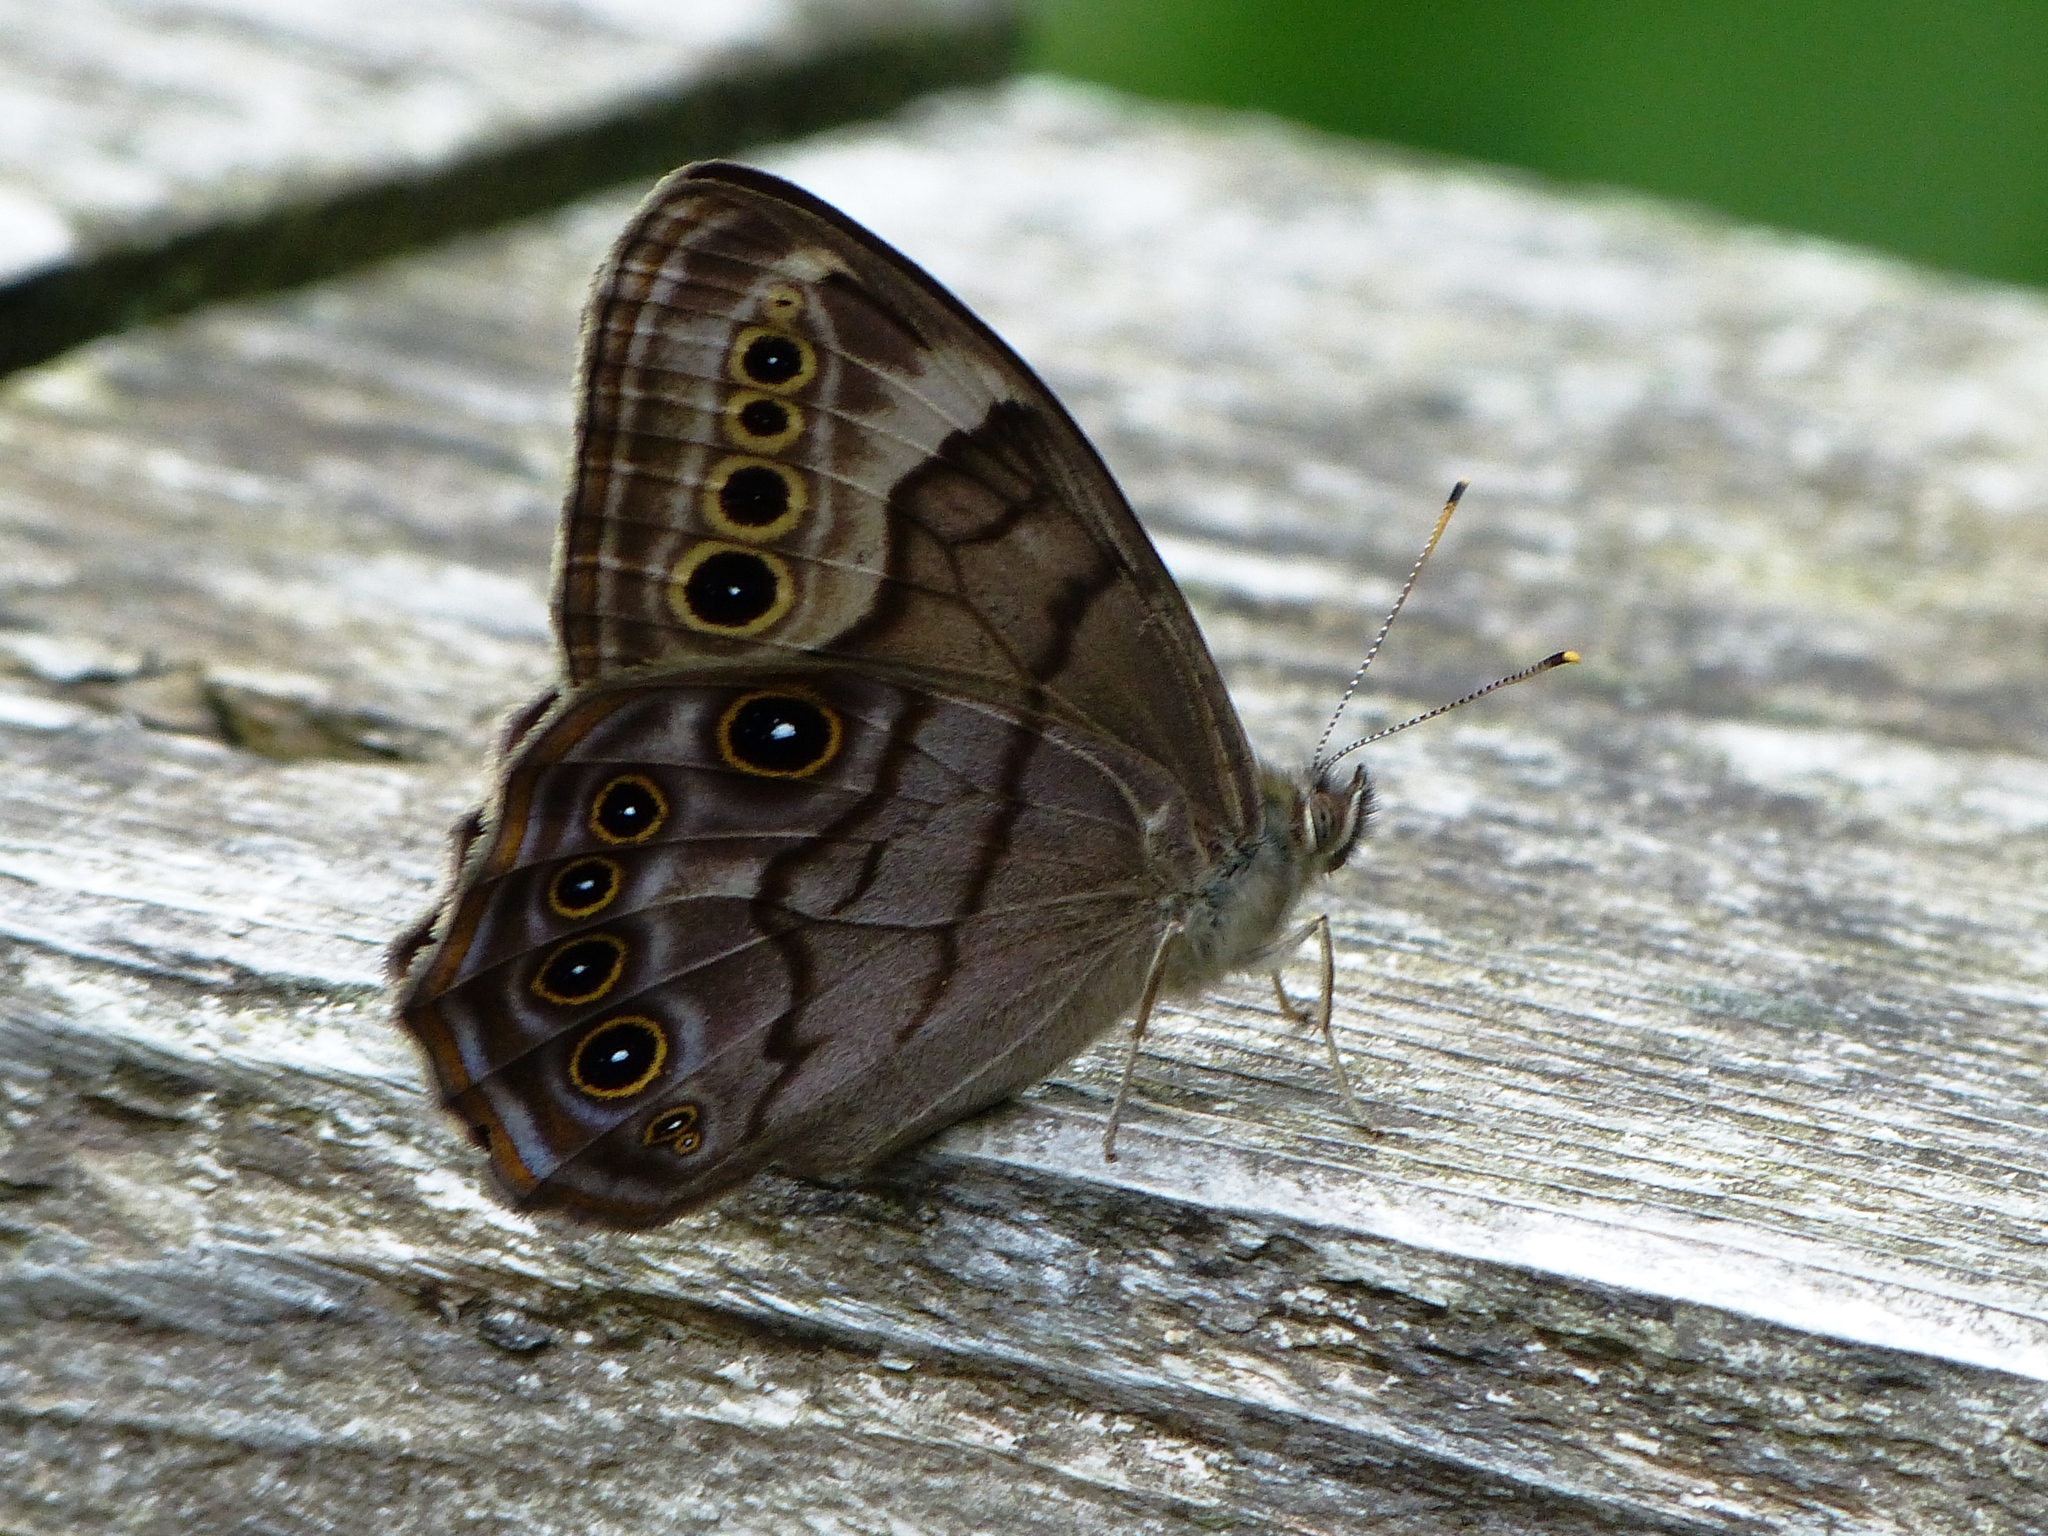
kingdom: Animalia
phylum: Arthropoda
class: Insecta
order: Lepidoptera
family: Nymphalidae
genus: Lethe
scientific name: Lethe anthedon
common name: Northern pearly-eye
